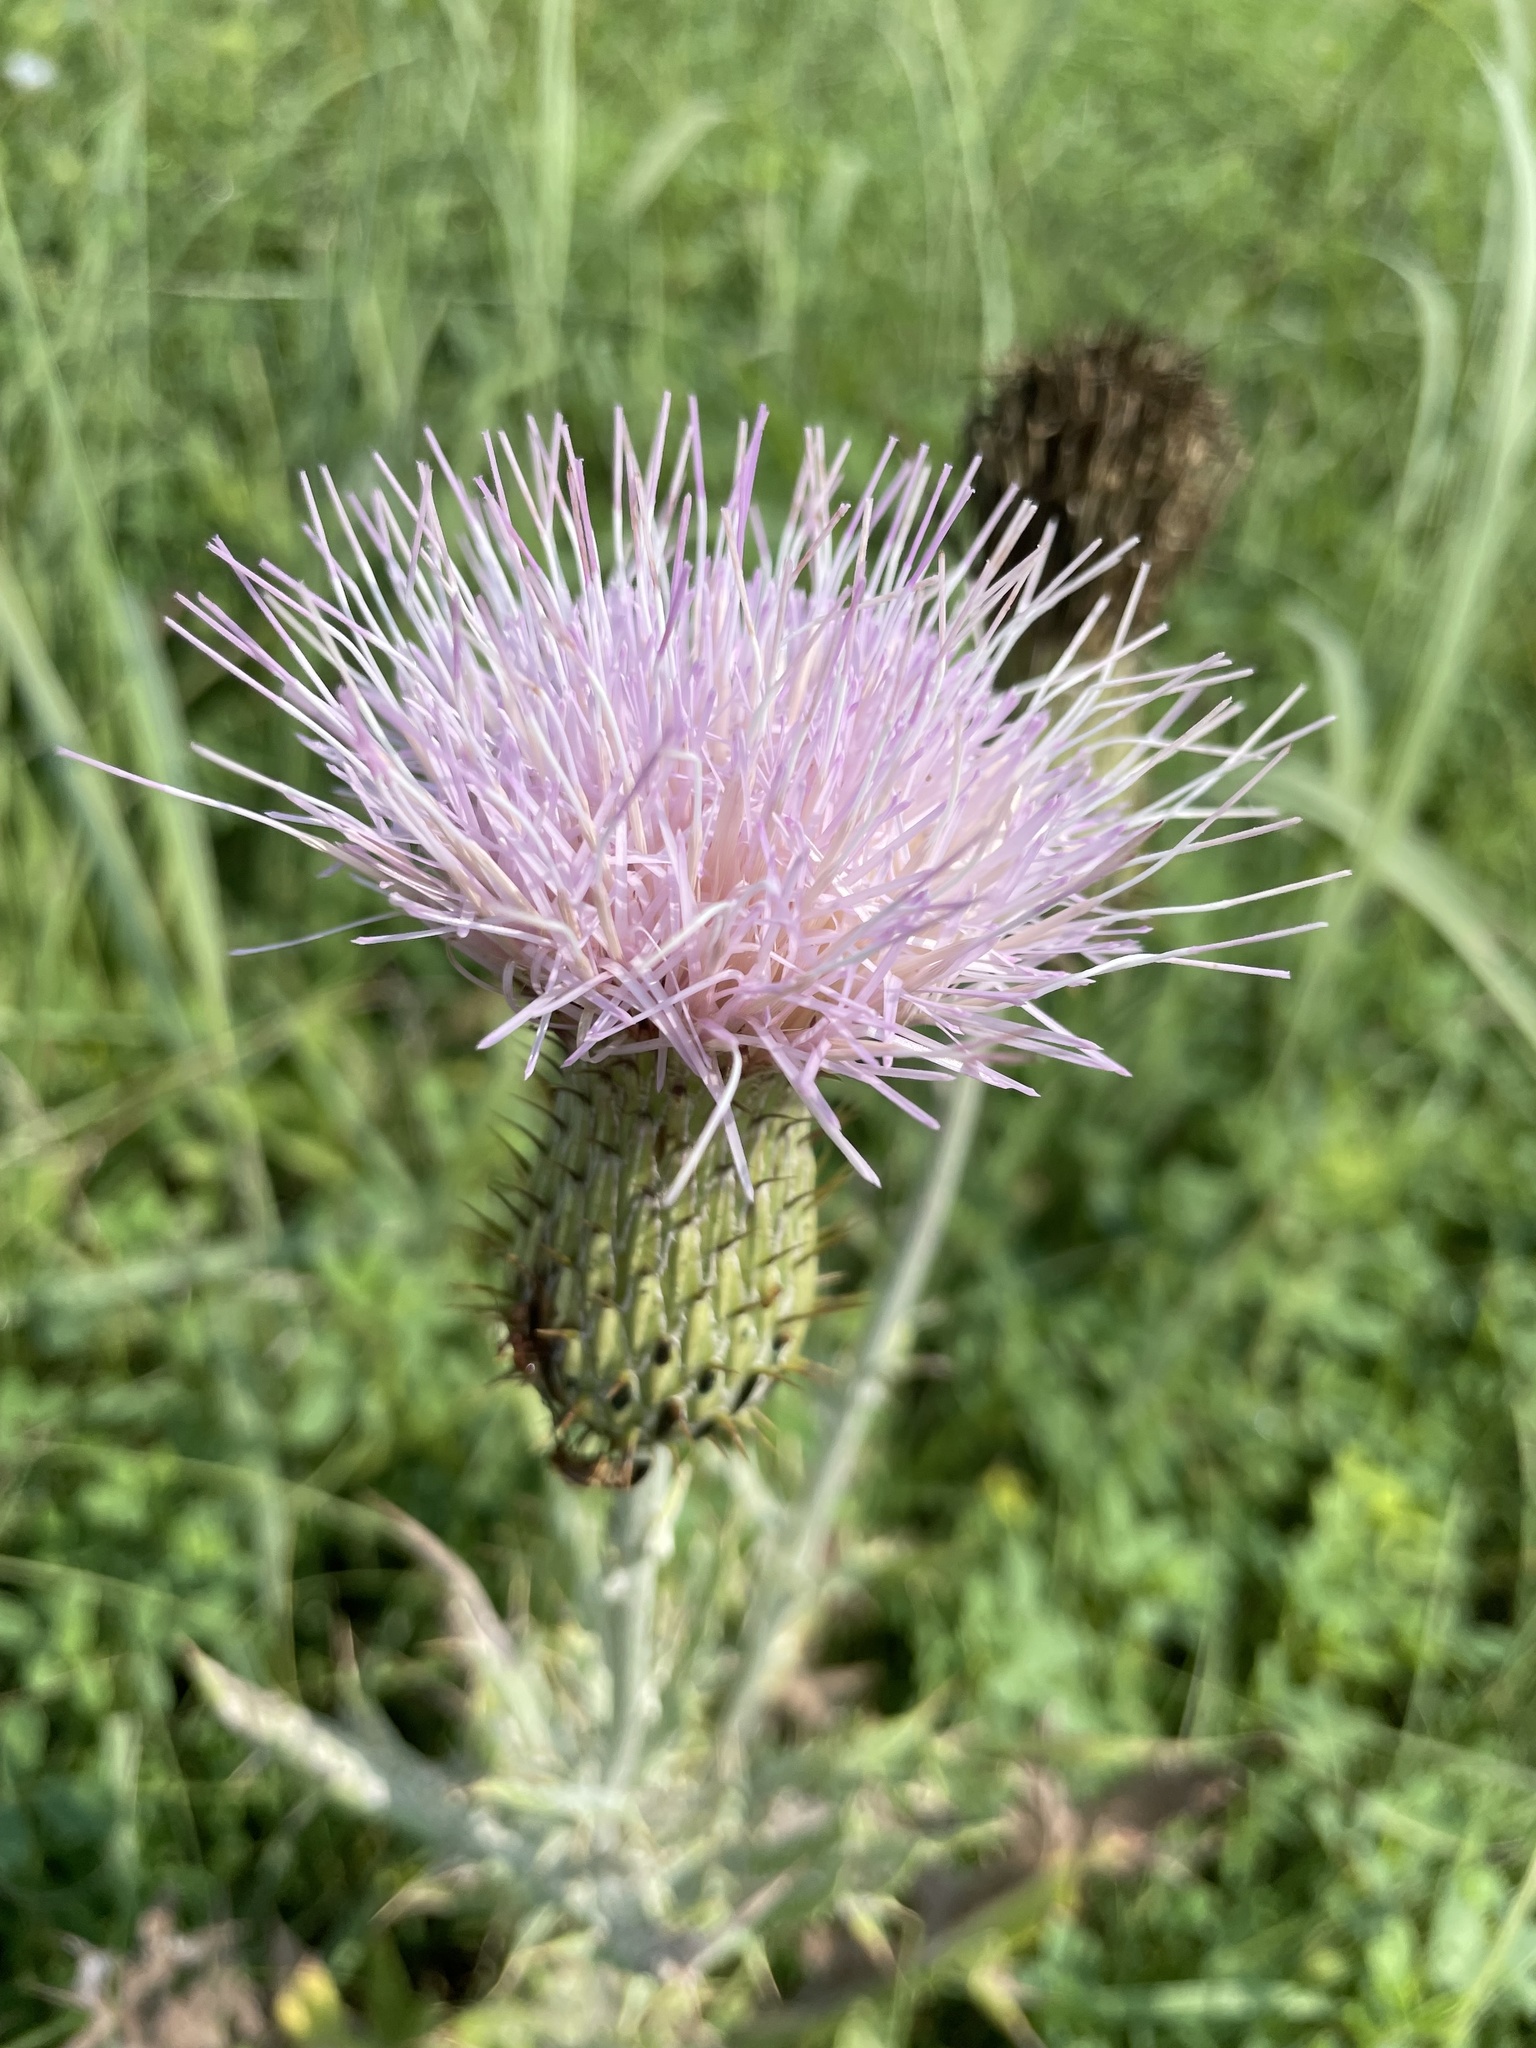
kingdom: Plantae
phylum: Tracheophyta
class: Magnoliopsida
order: Asterales
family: Asteraceae
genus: Cirsium
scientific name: Cirsium undulatum
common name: Pasture thistle
